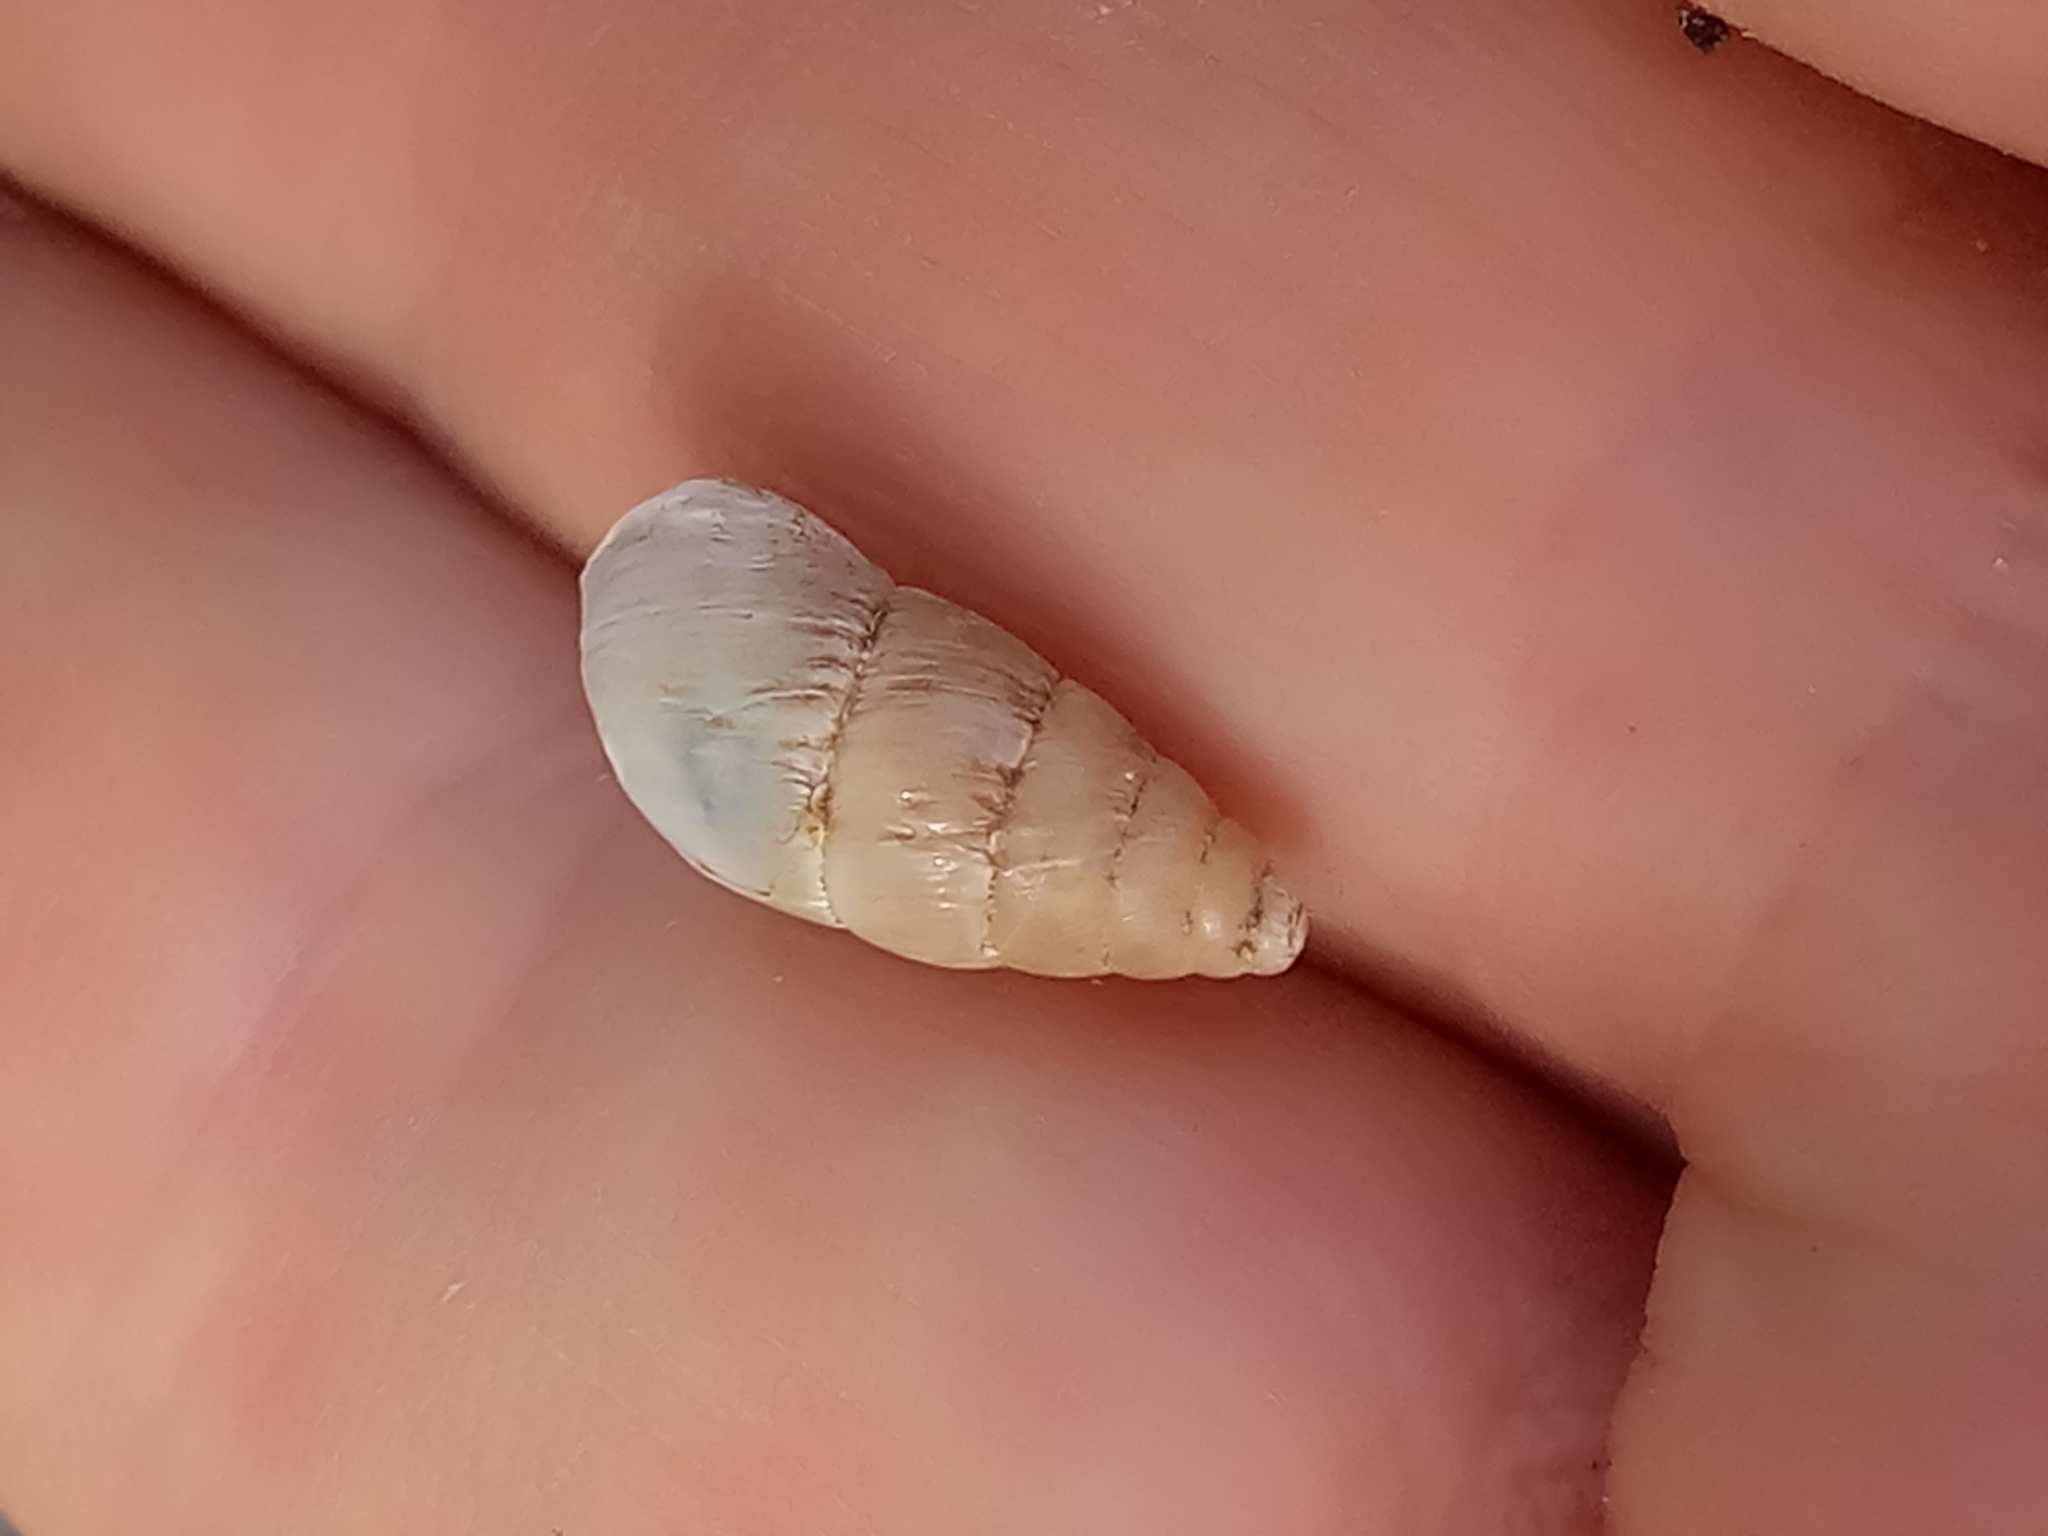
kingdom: Animalia
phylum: Mollusca
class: Gastropoda
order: Stylommatophora
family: Enidae
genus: Mastus
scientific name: Mastus pupa
